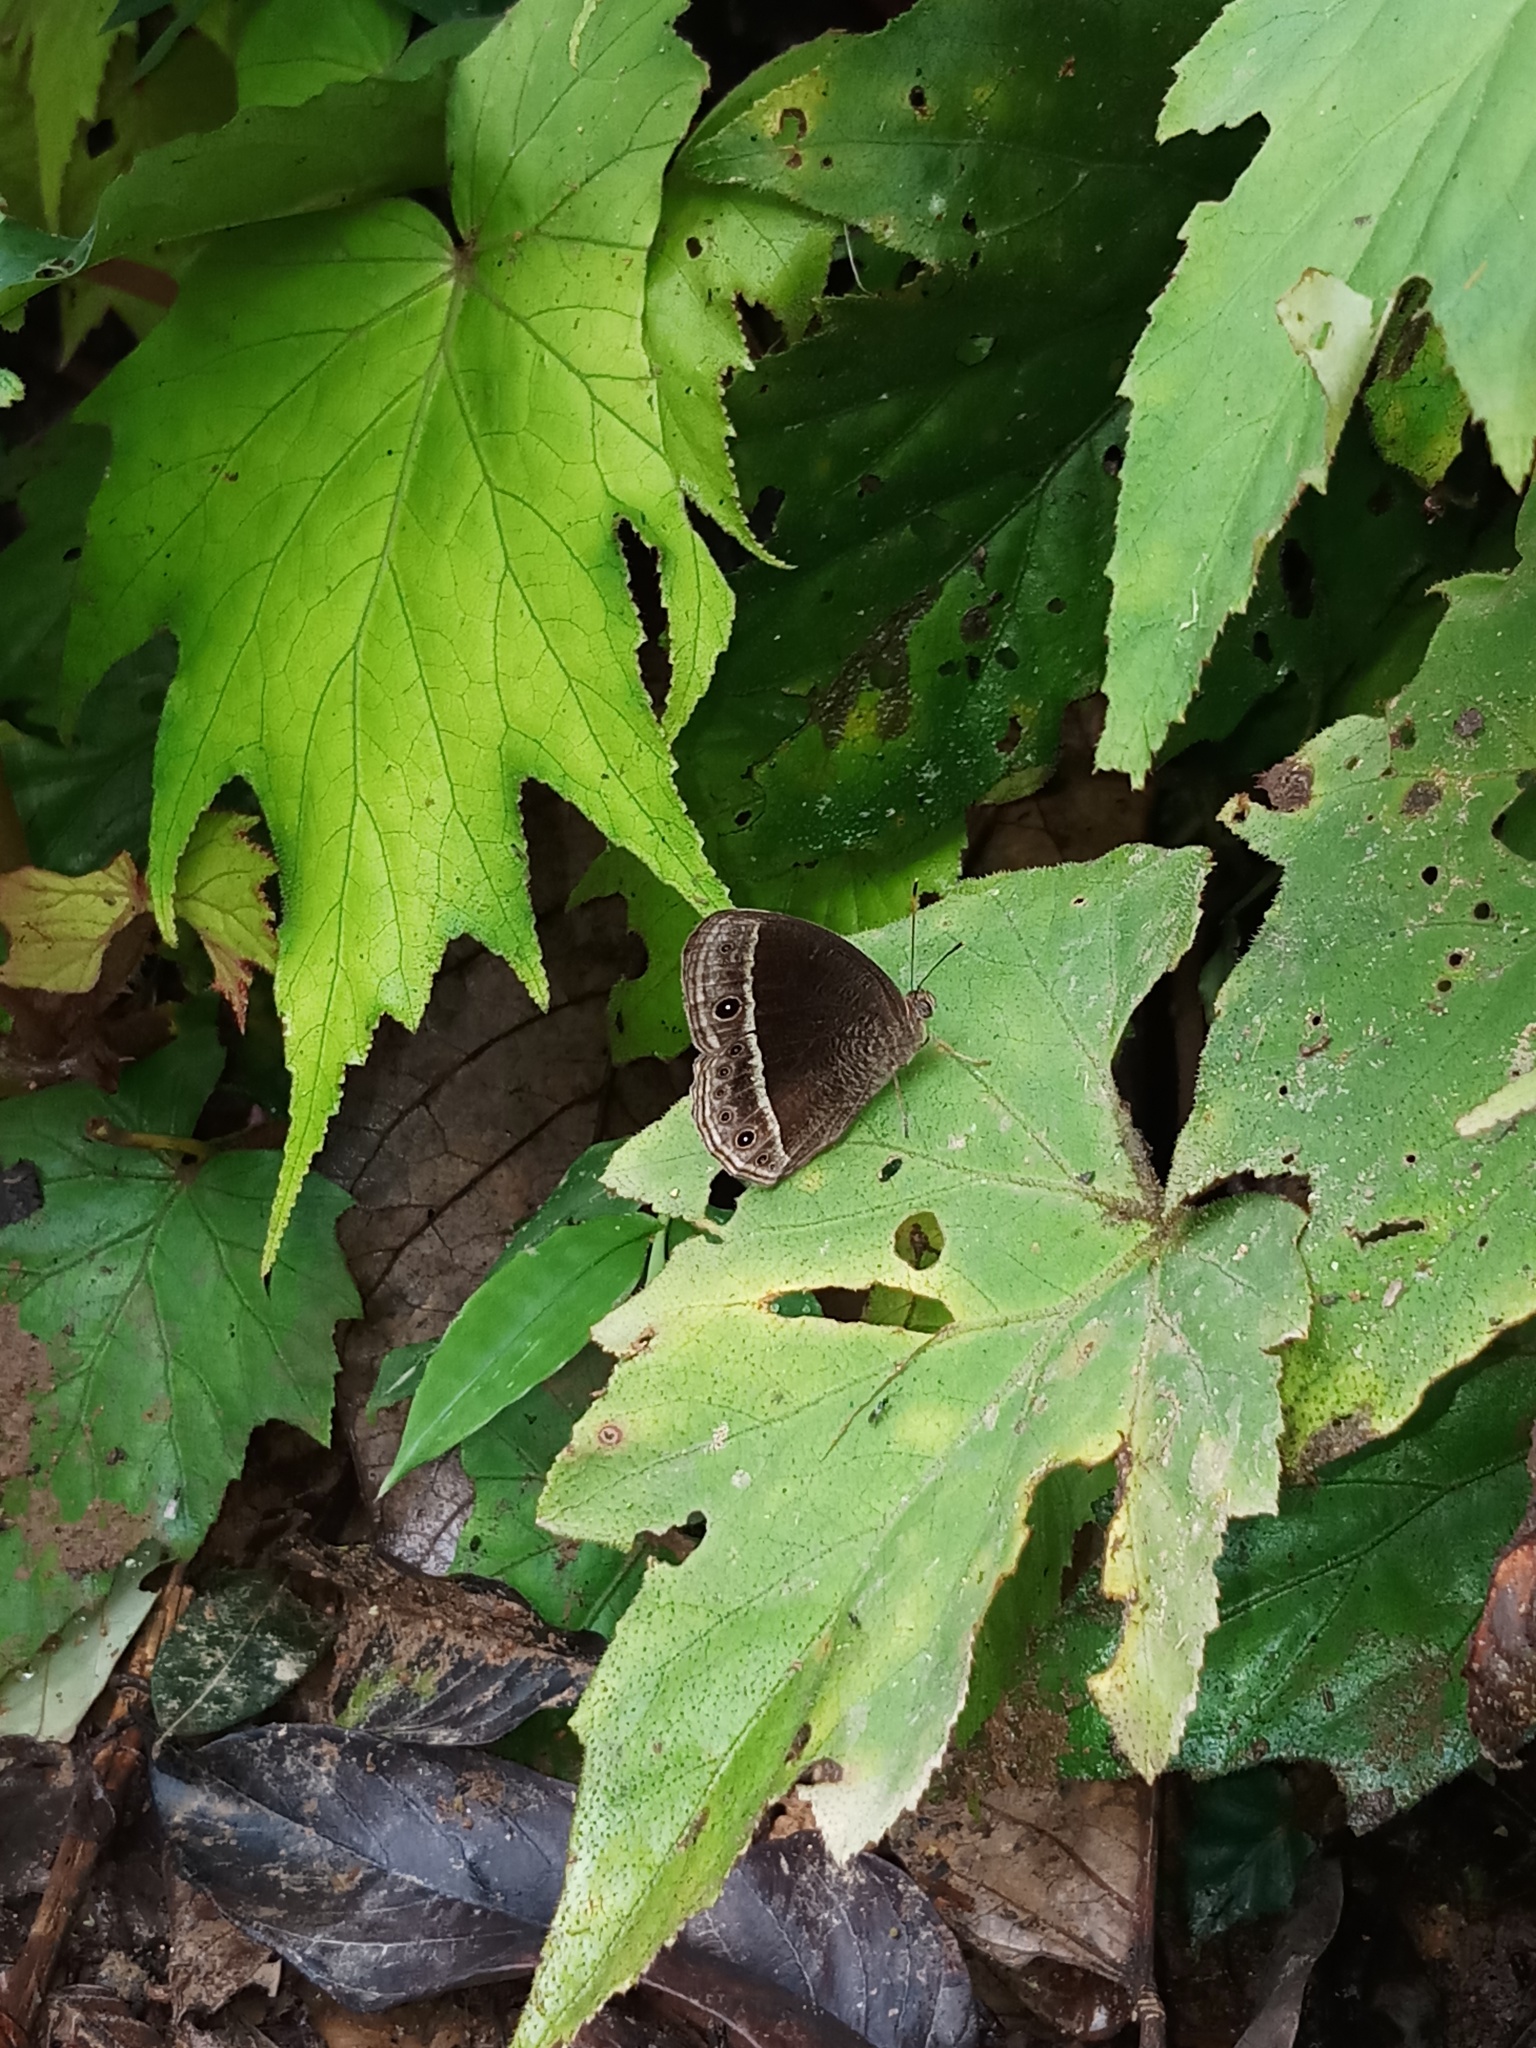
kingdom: Animalia
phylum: Arthropoda
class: Insecta
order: Lepidoptera
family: Nymphalidae
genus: Mycalesis
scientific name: Mycalesis Telinga misenus
